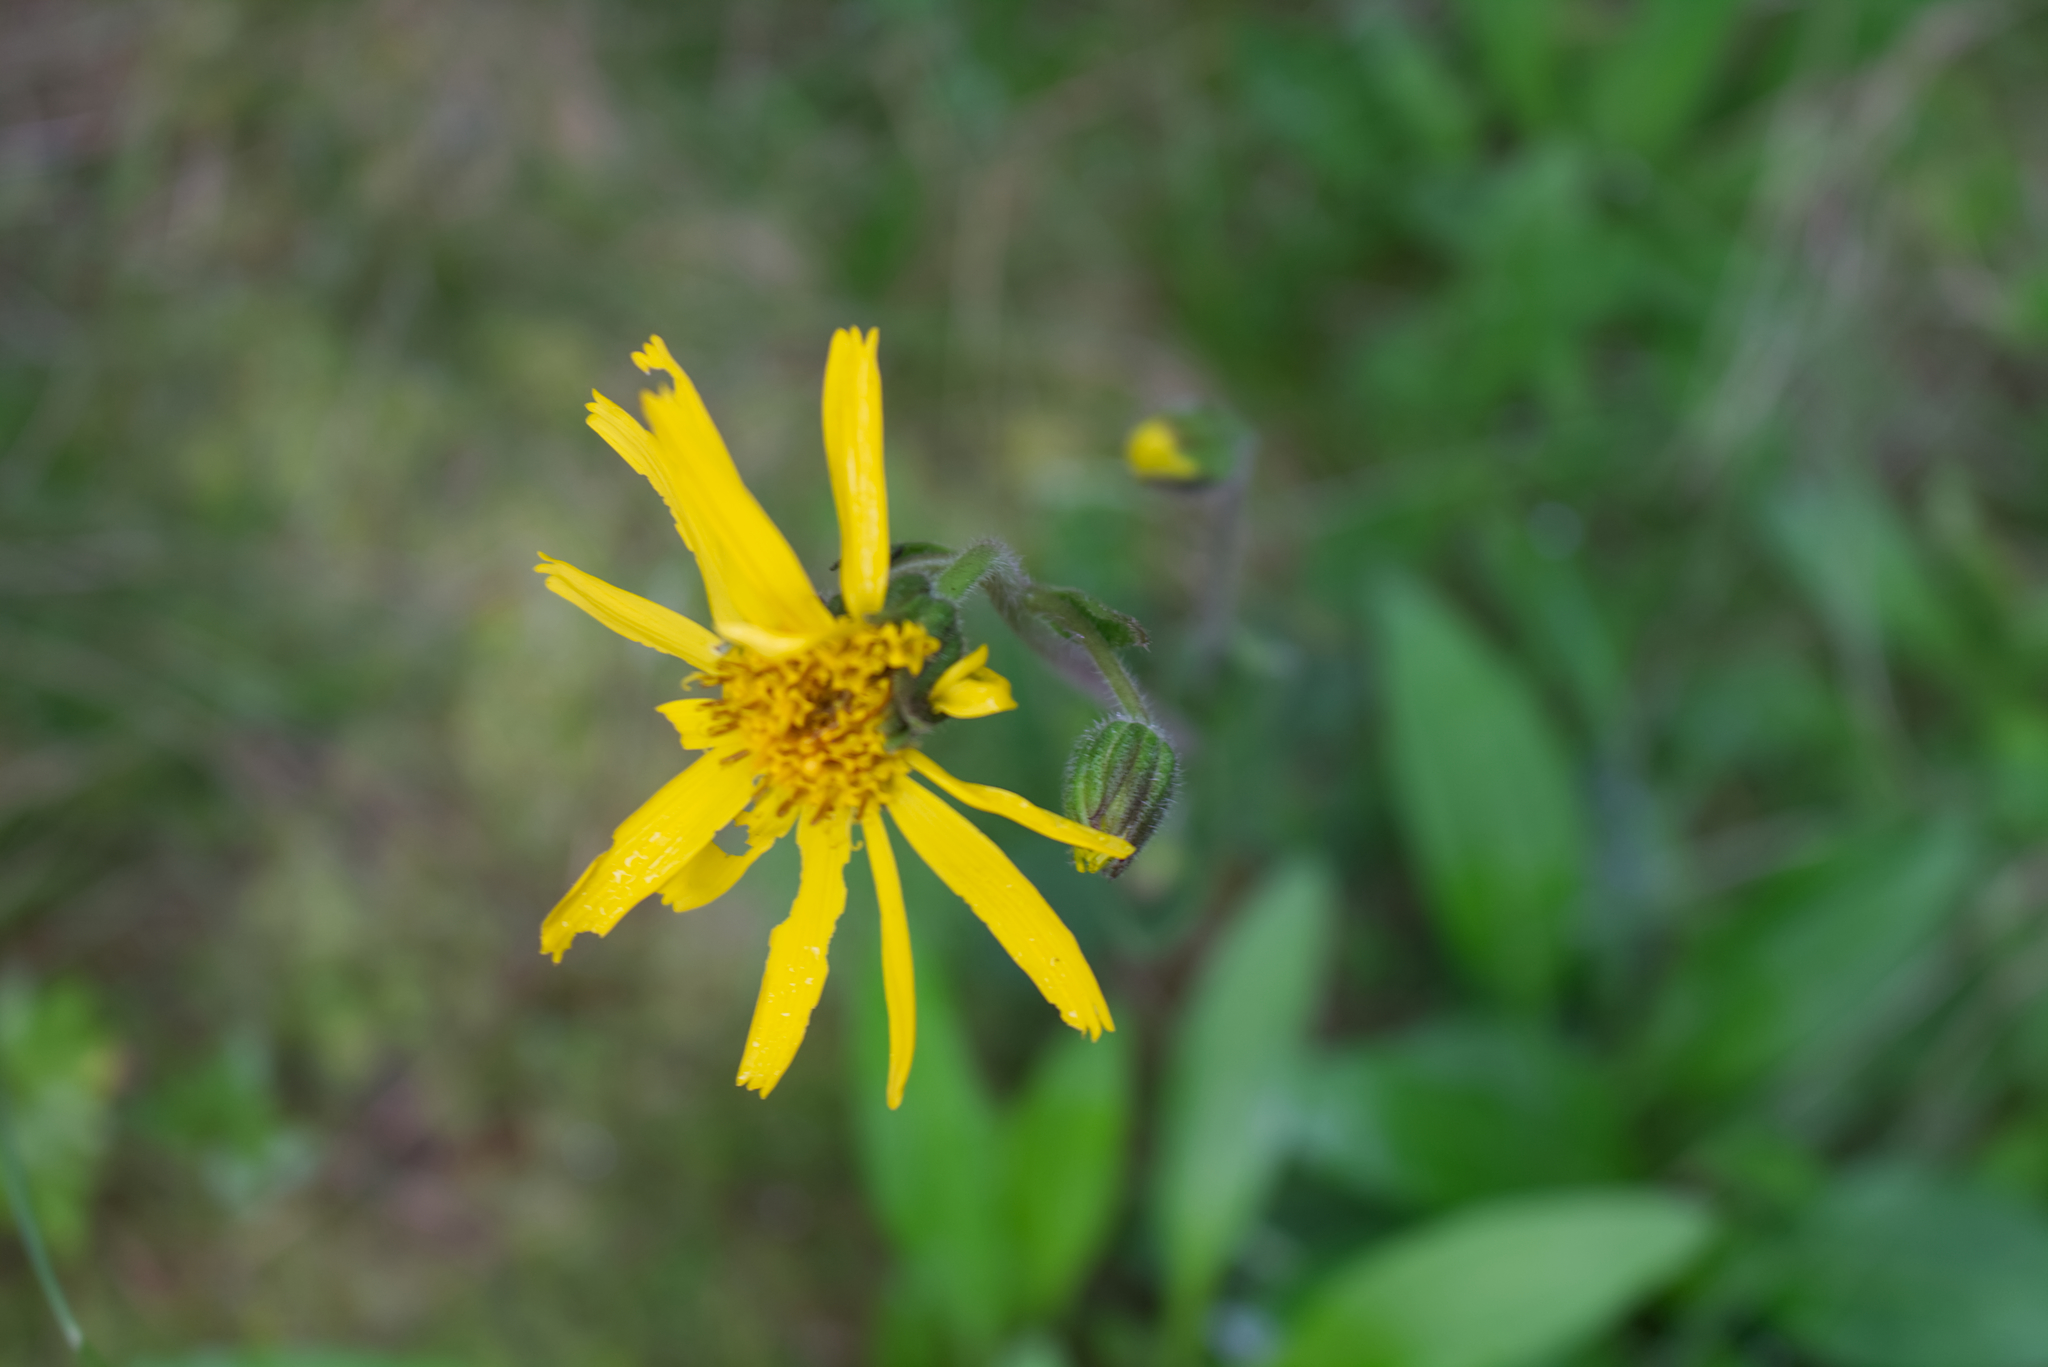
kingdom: Plantae
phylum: Tracheophyta
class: Magnoliopsida
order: Asterales
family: Asteraceae
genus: Arnica
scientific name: Arnica montana
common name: Leopard's bane
